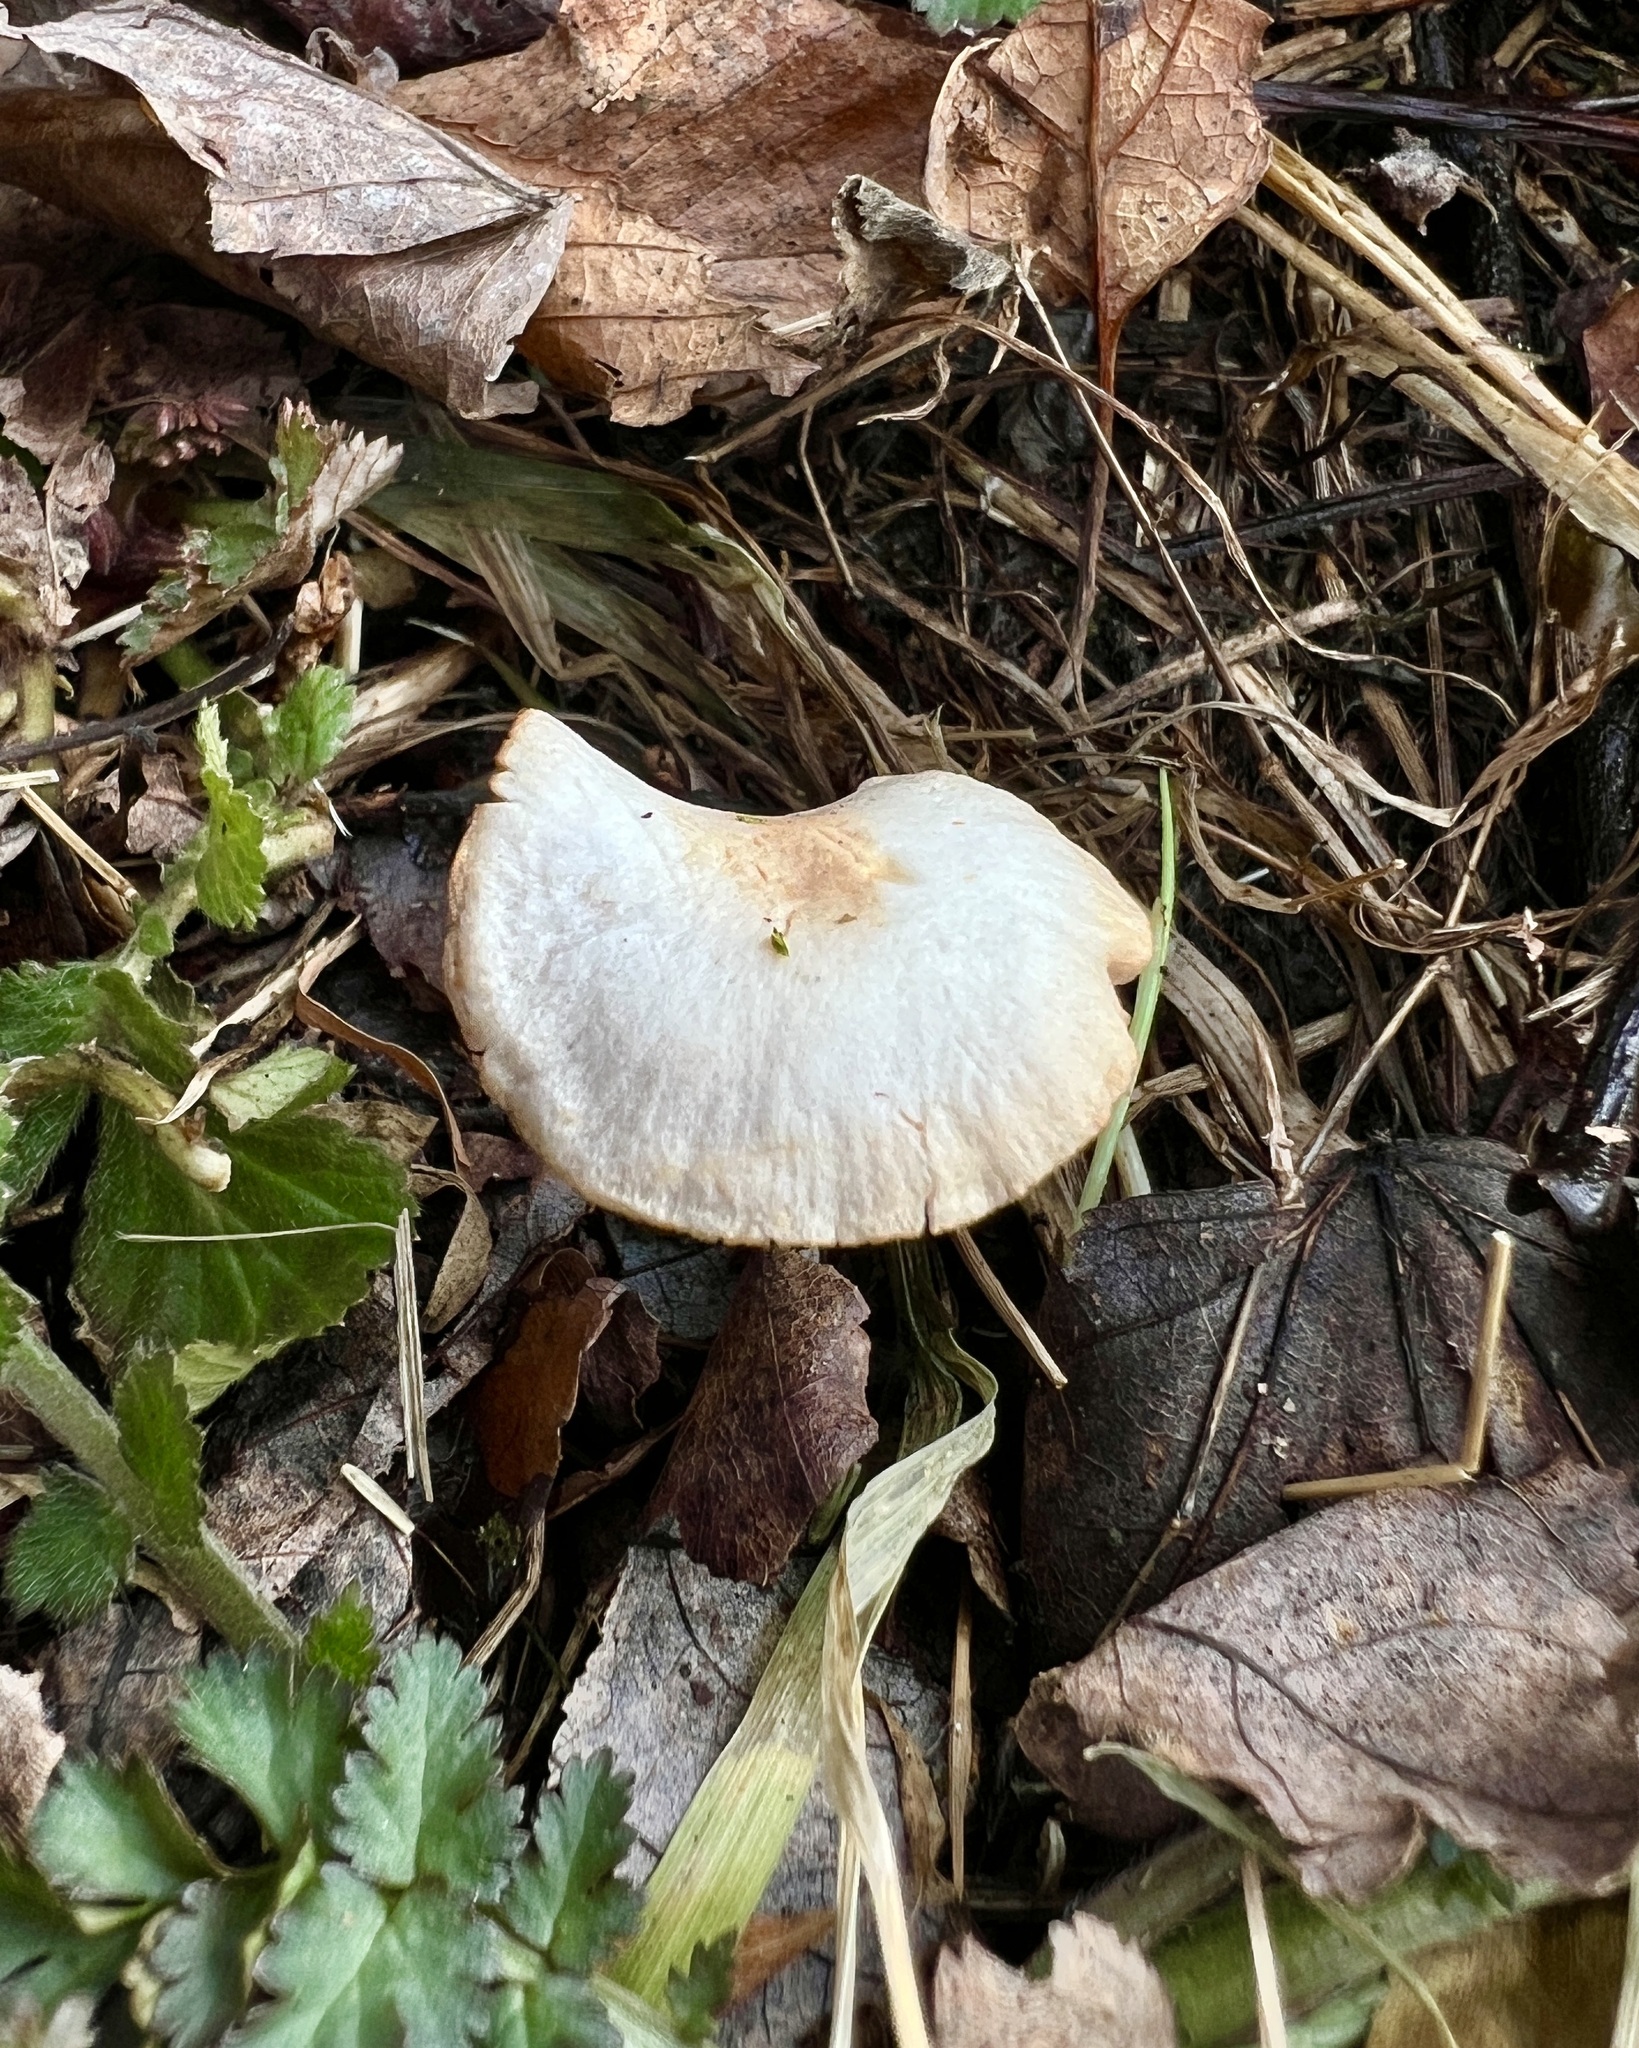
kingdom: Fungi
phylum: Basidiomycota
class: Agaricomycetes
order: Agaricales
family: Tubariaceae
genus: Tubaria
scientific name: Tubaria furfuracea
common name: Scurfy twiglet
